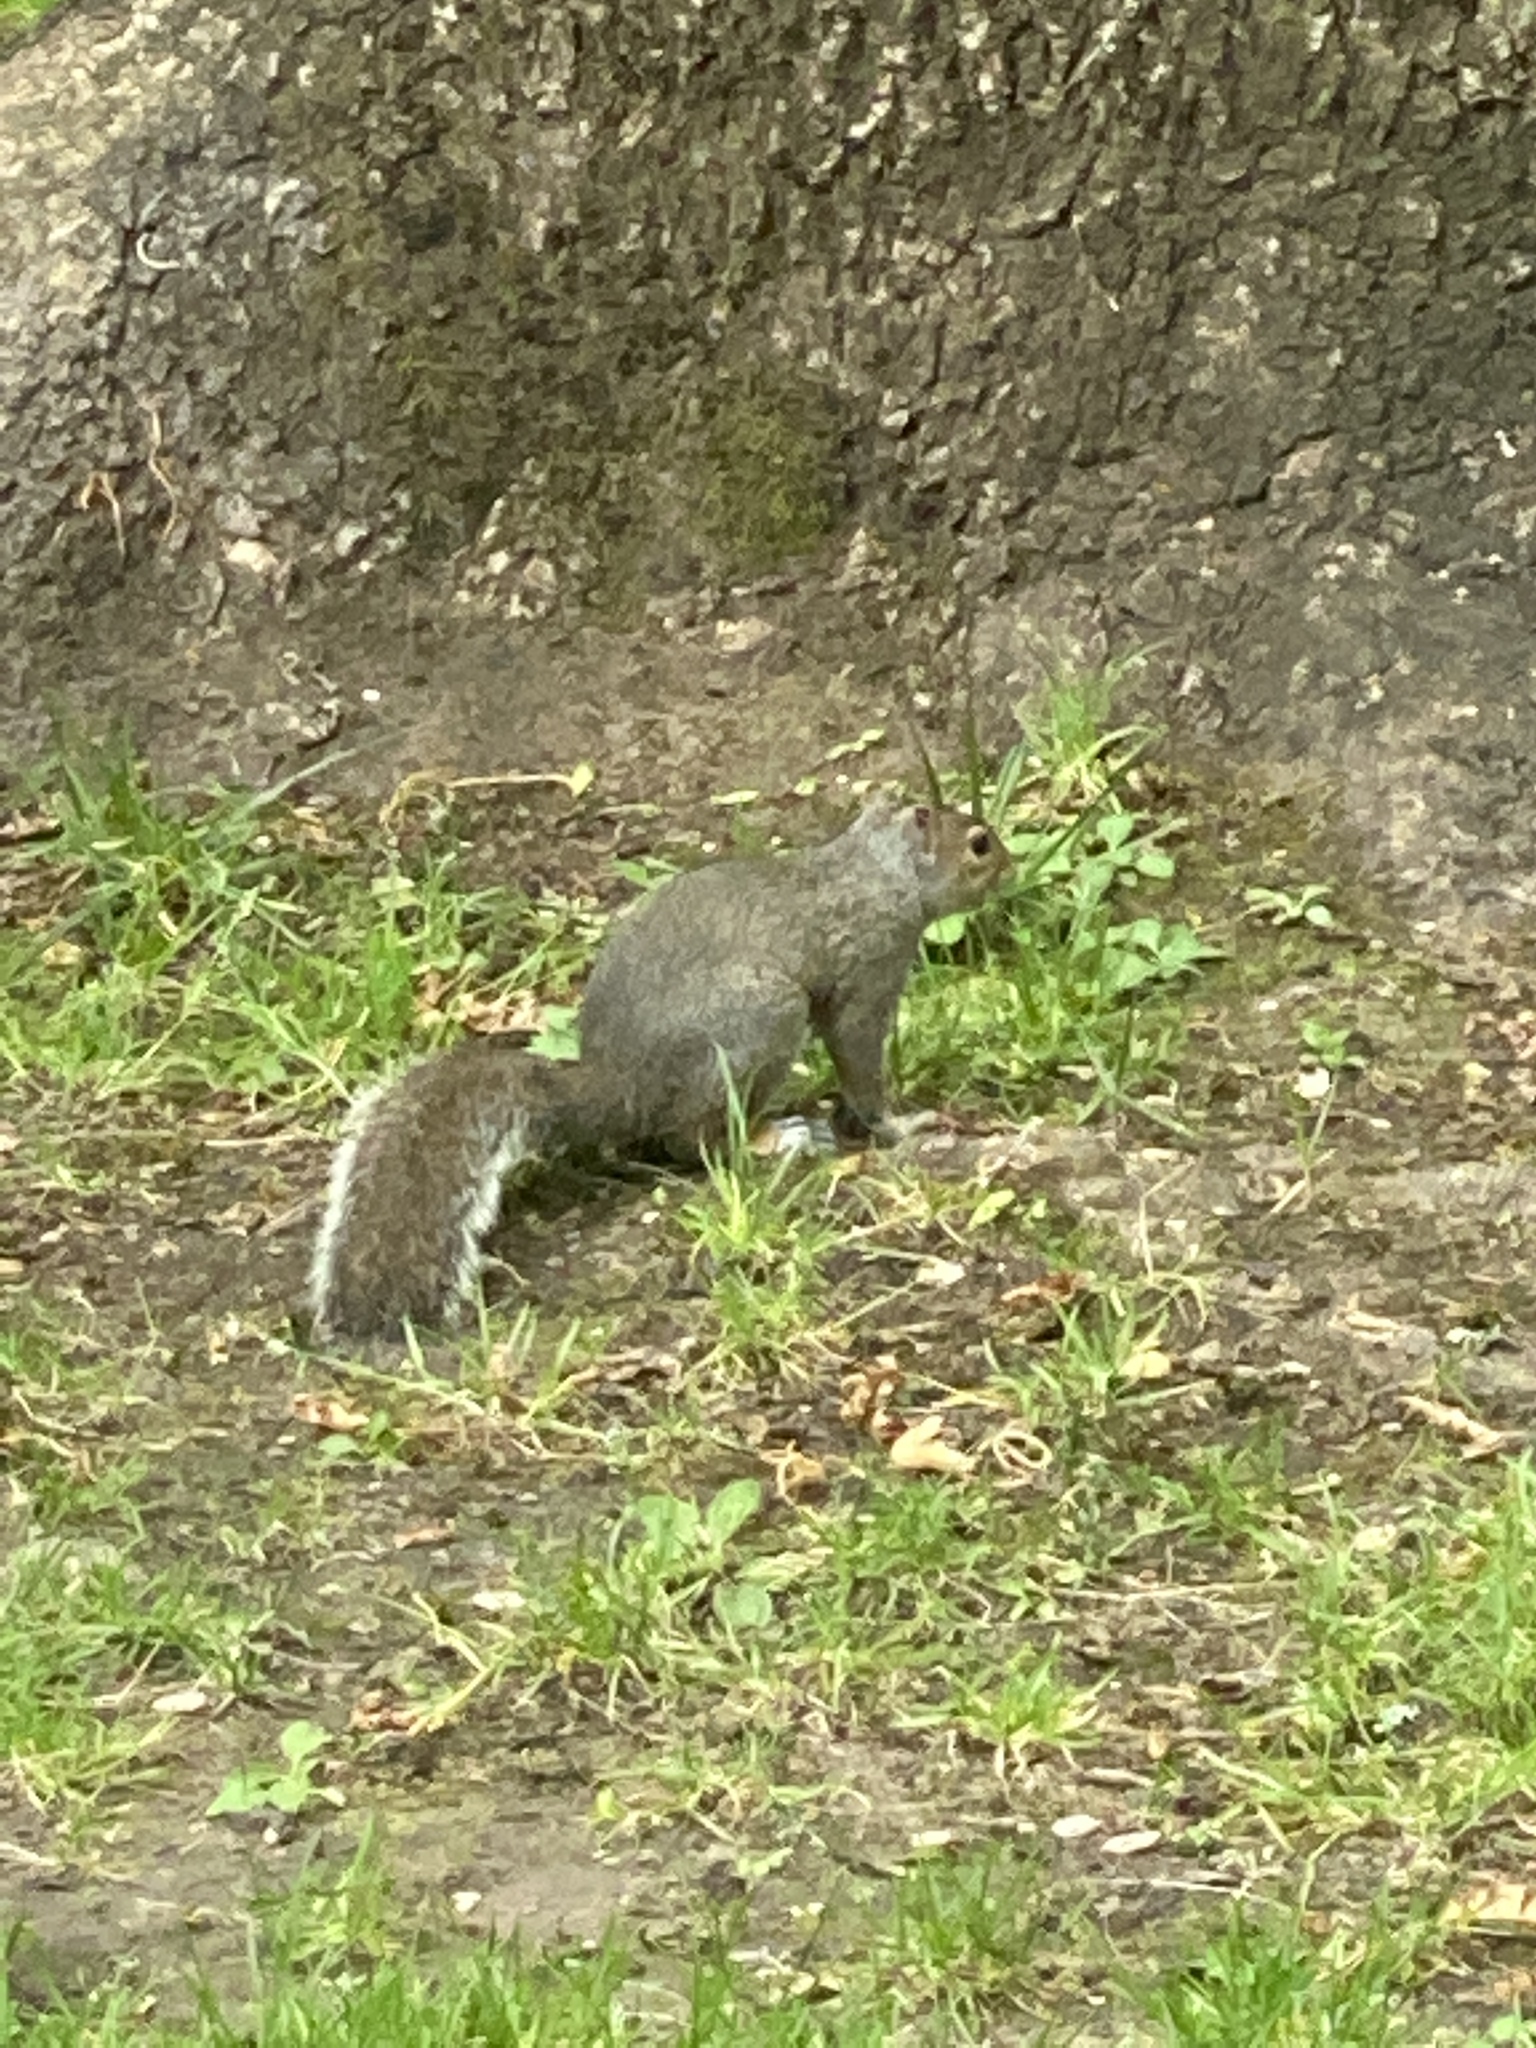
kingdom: Animalia
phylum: Chordata
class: Mammalia
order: Rodentia
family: Sciuridae
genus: Sciurus
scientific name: Sciurus carolinensis
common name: Eastern gray squirrel
